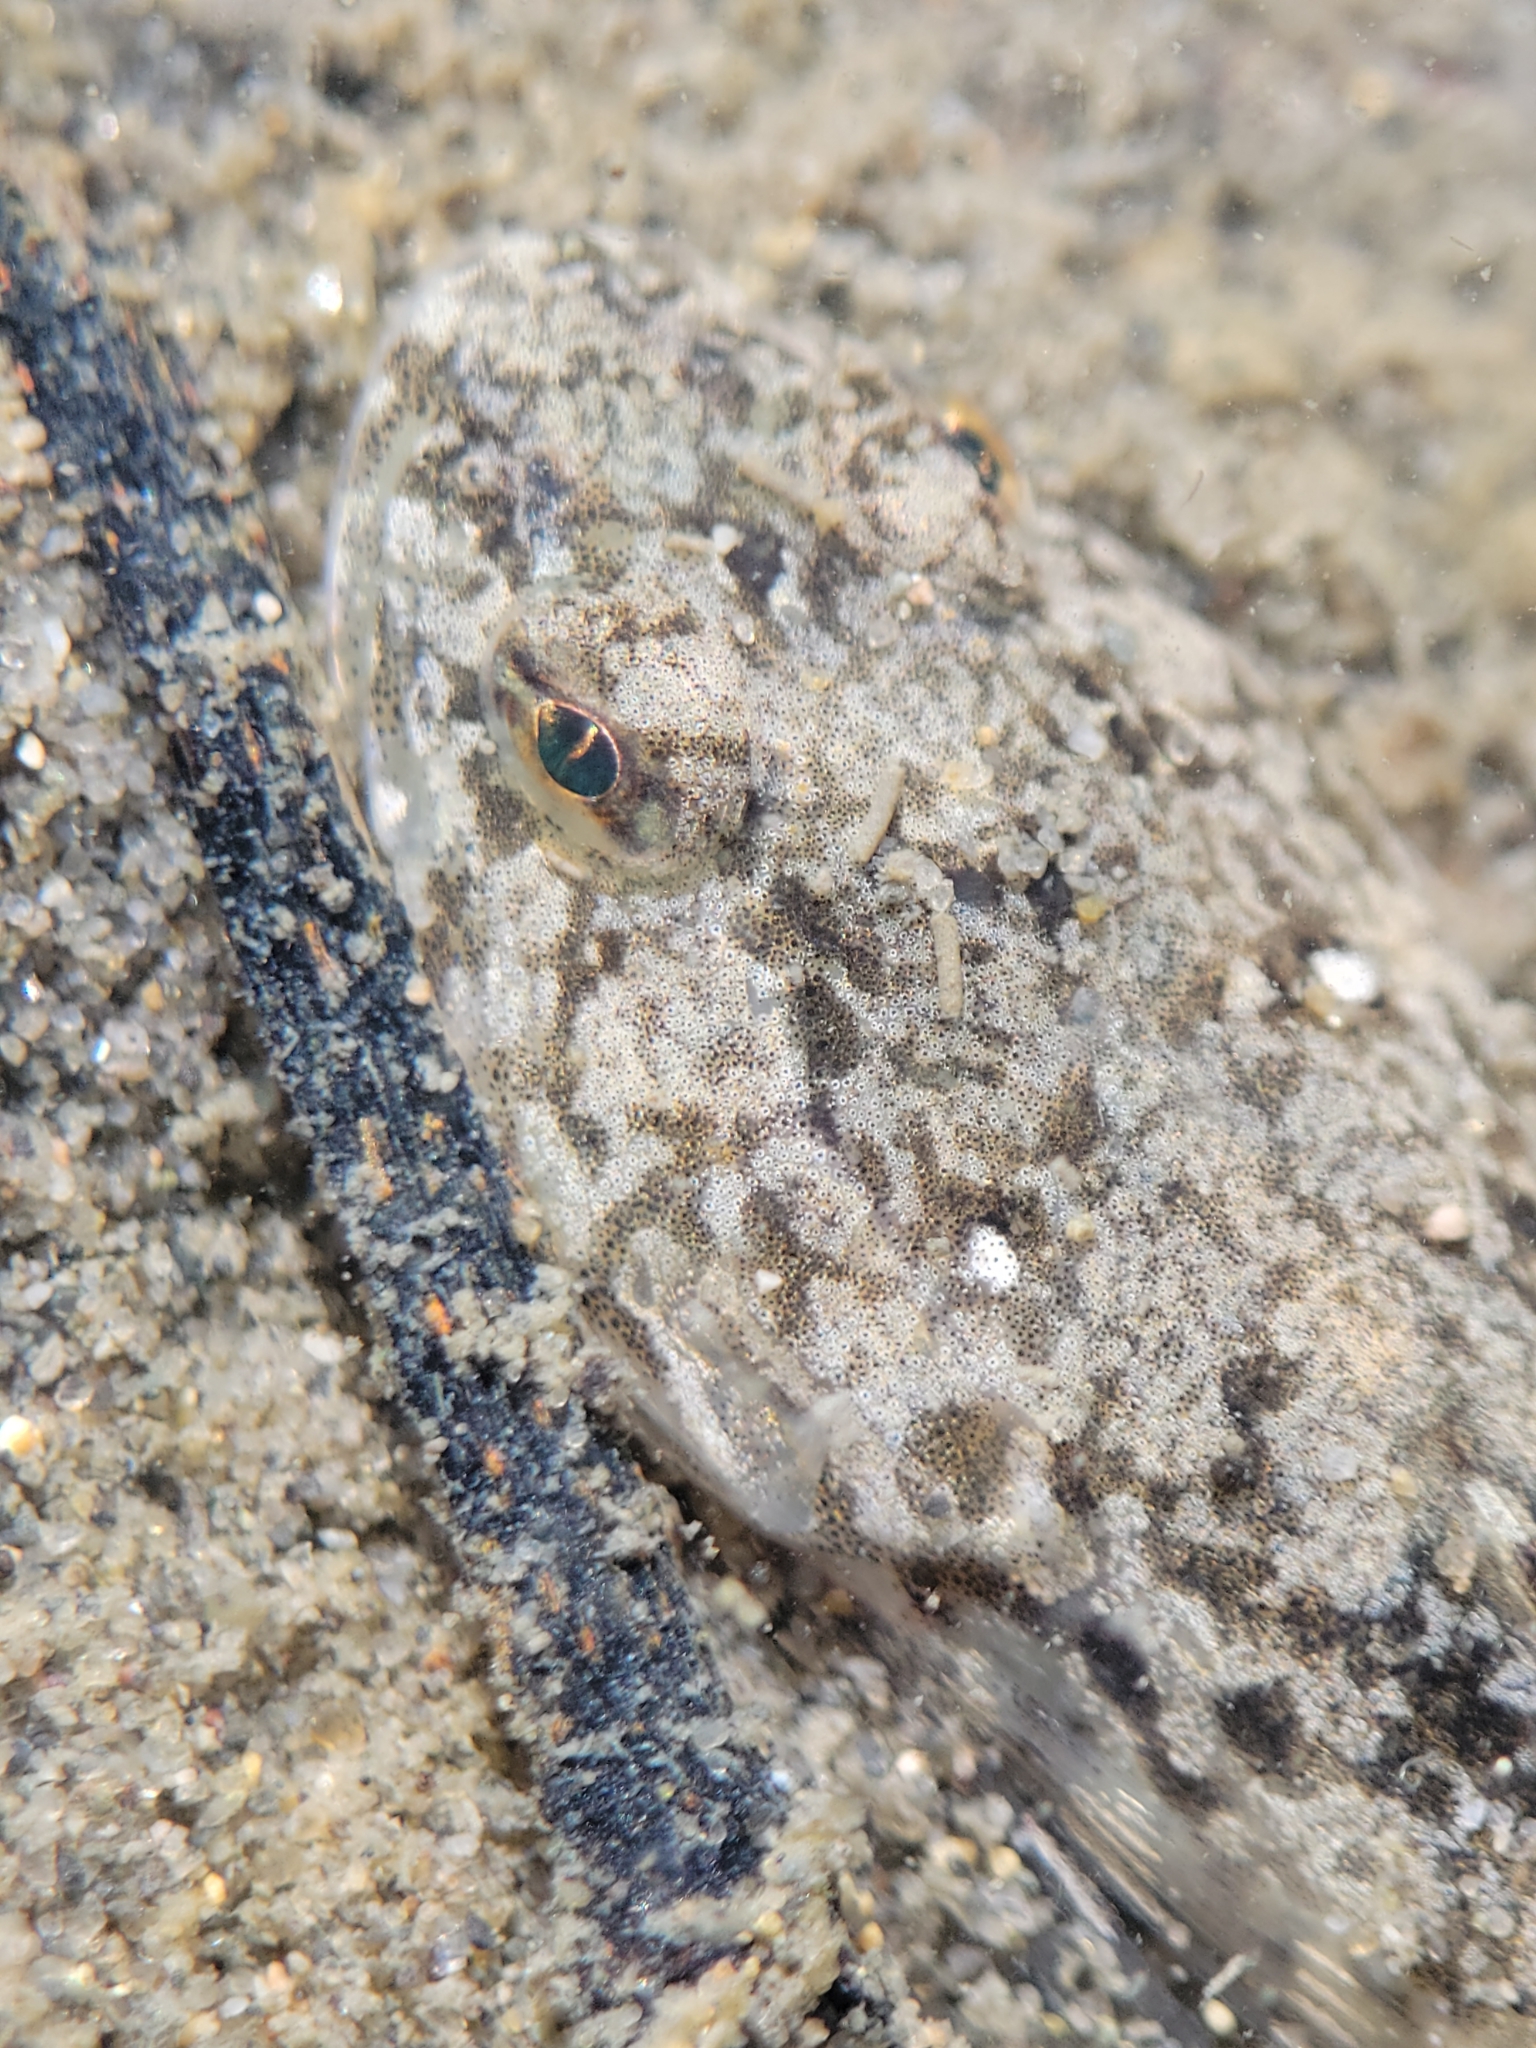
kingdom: Animalia
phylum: Chordata
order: Scorpaeniformes
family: Cottidae
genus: Leptocottus
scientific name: Leptocottus armatus
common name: Pacific staghorn sculpin
